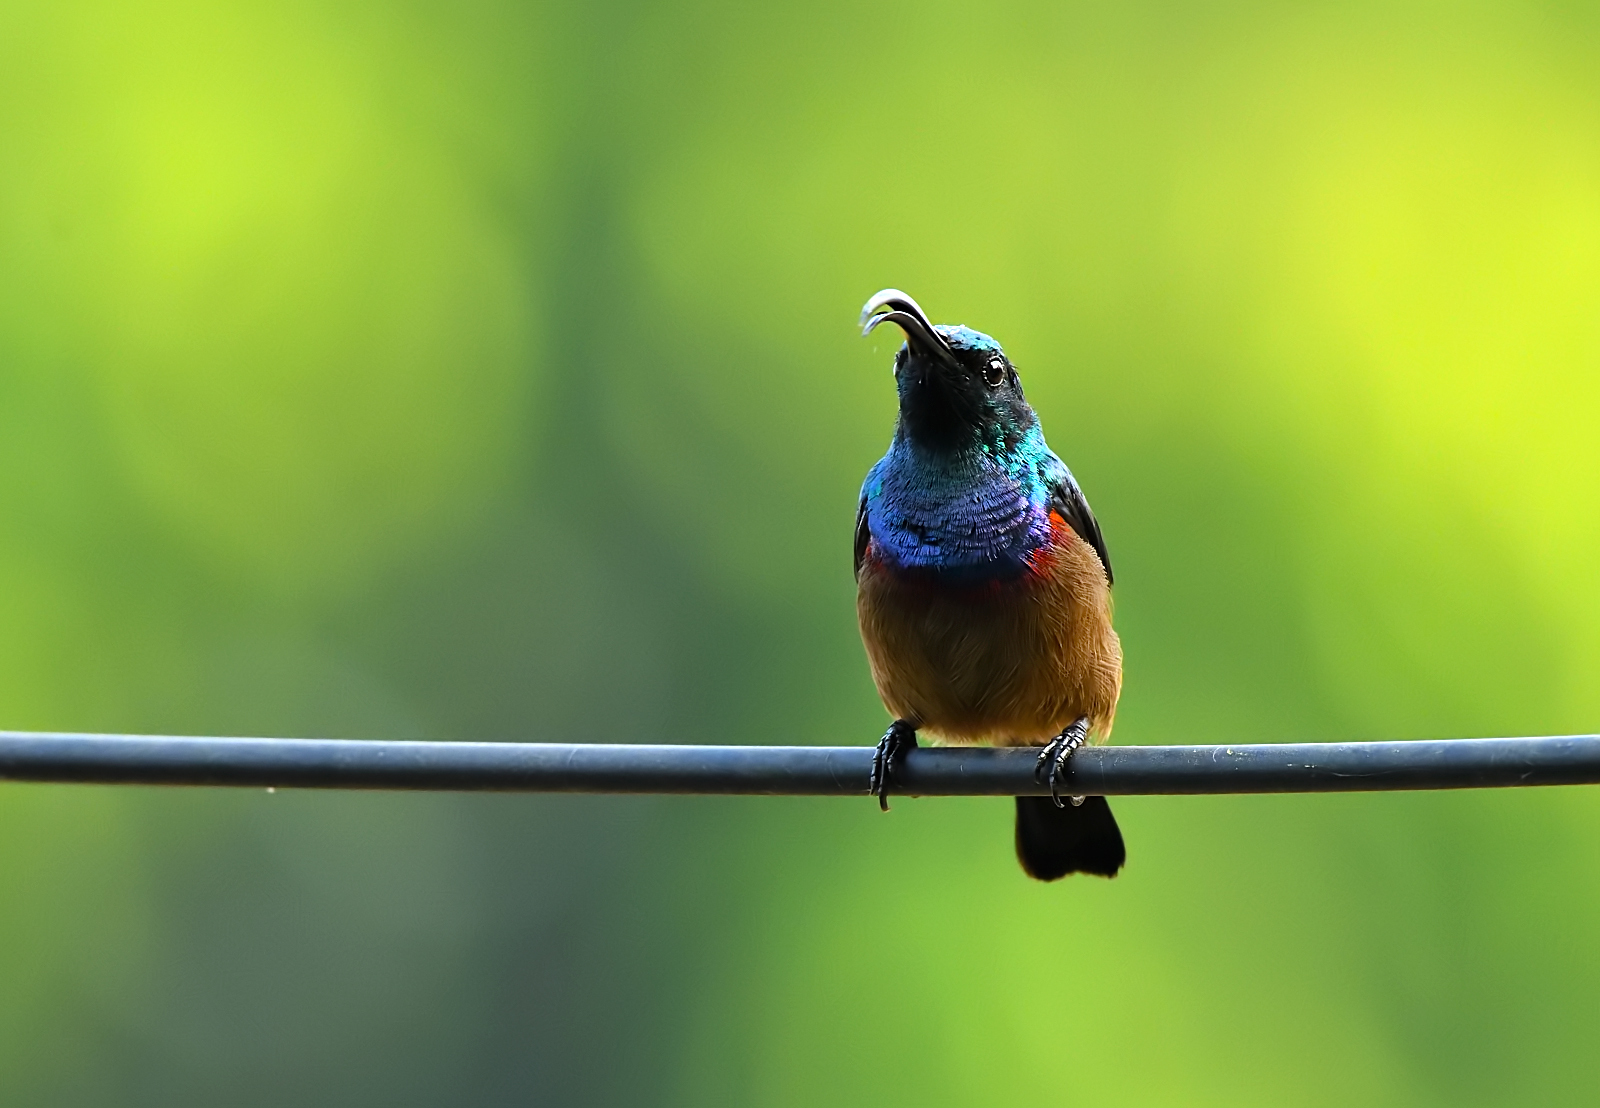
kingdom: Animalia
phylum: Chordata
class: Aves
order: Passeriformes
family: Nectariniidae
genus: Cinnyris
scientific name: Cinnyris lotenius
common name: Loten's sunbird
